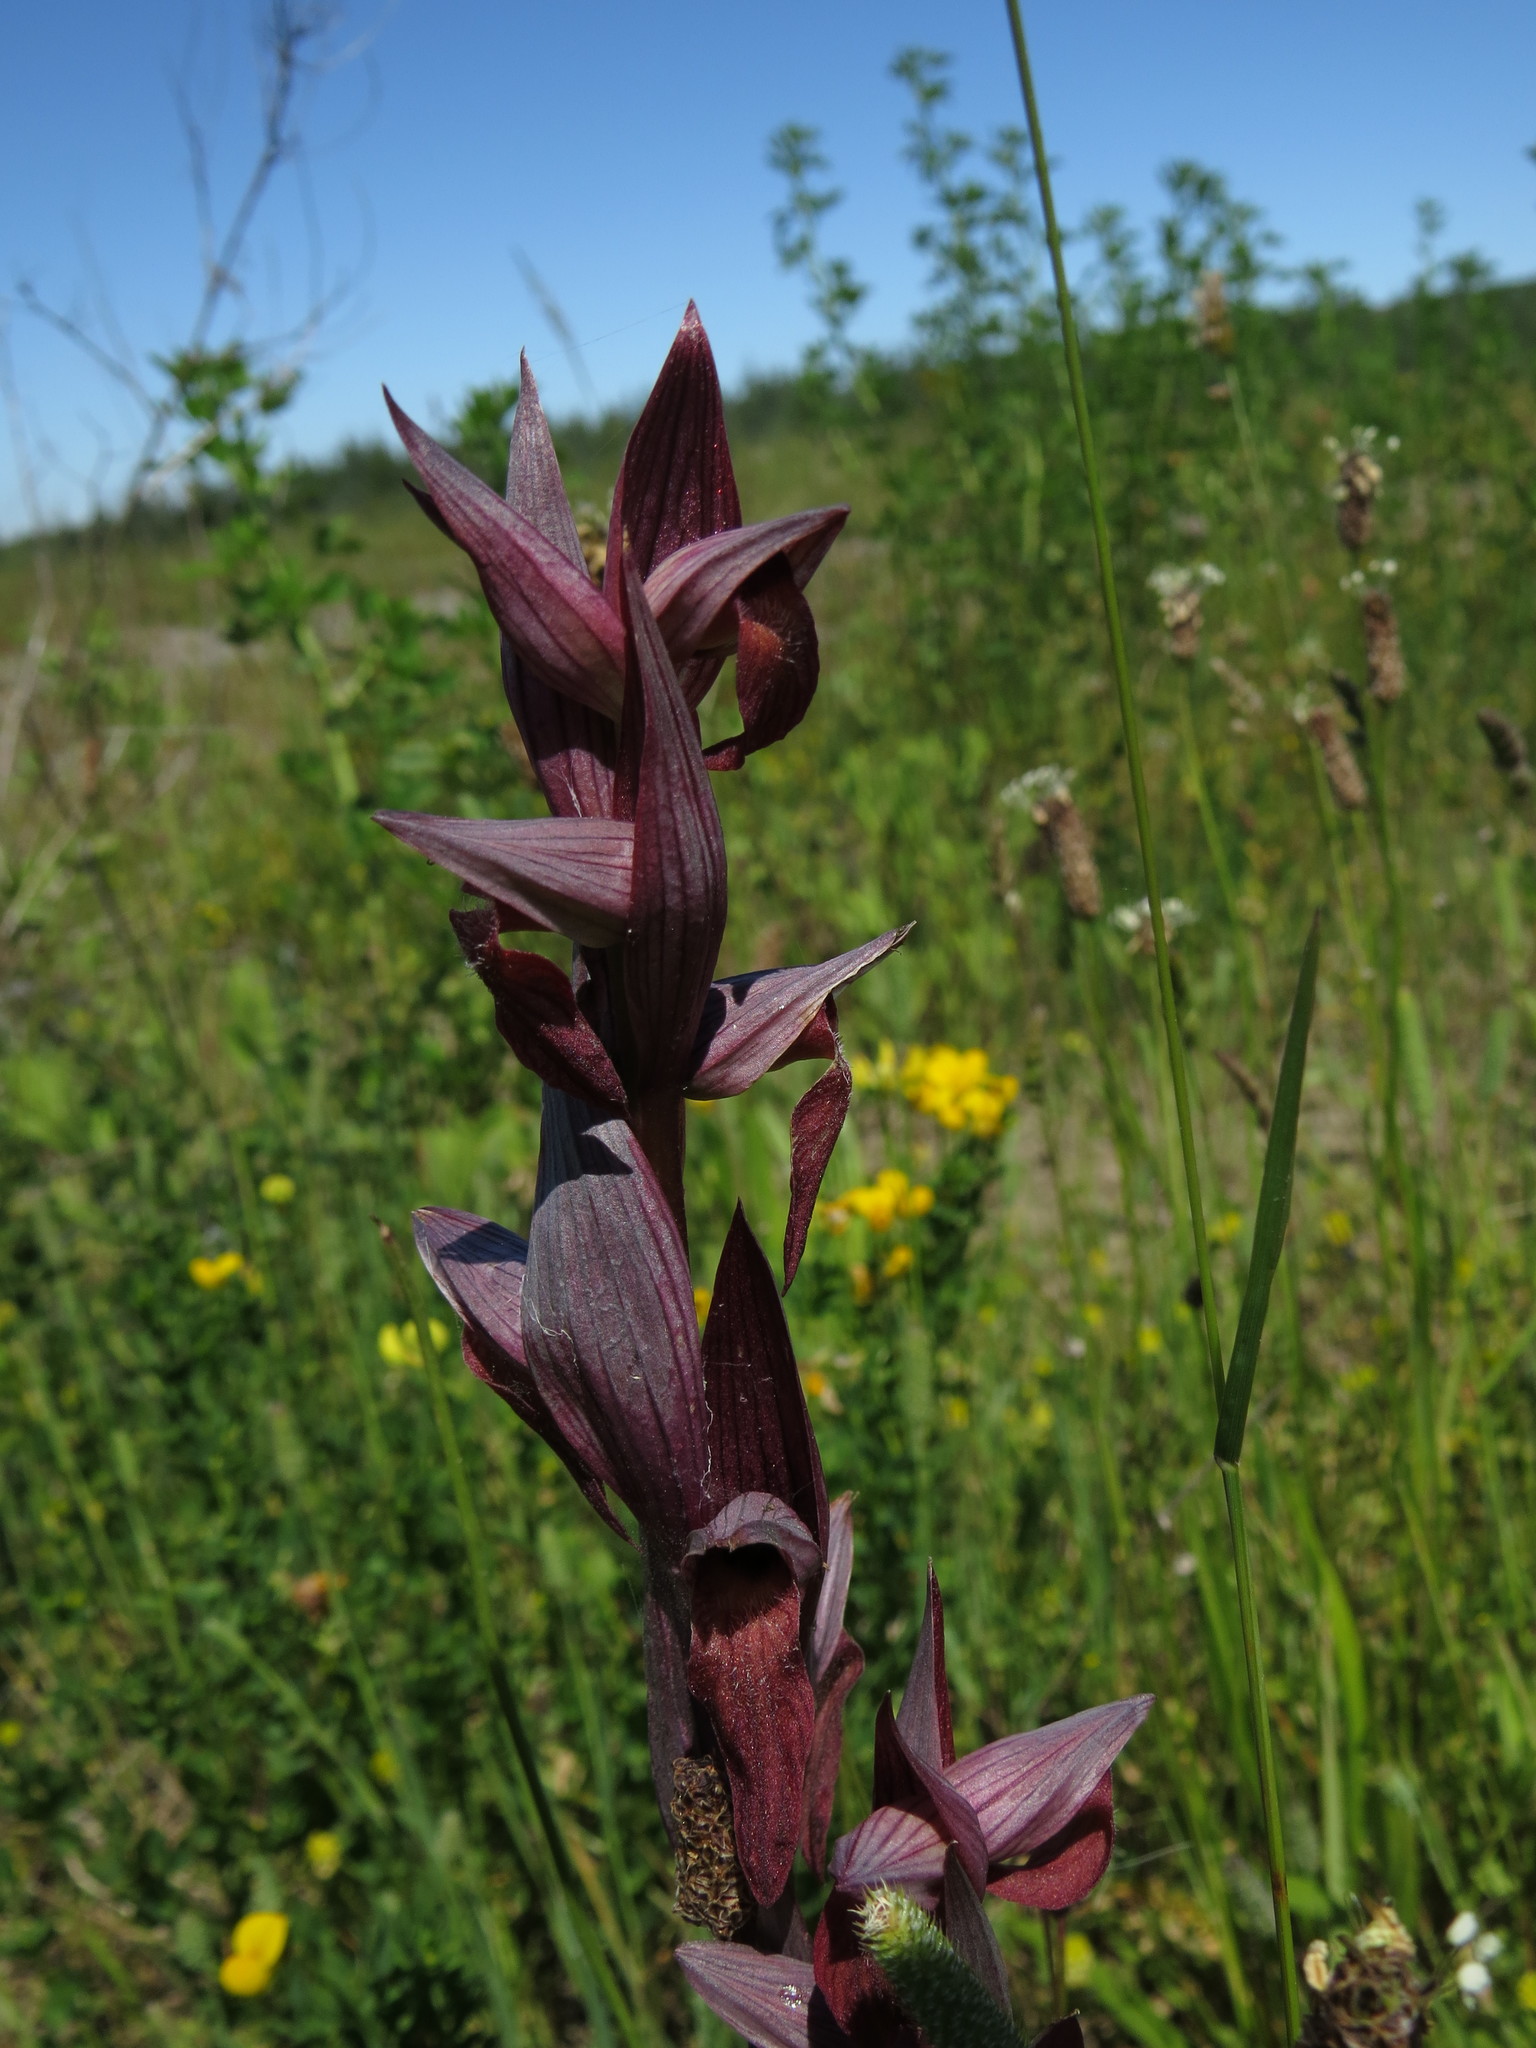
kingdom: Plantae
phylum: Tracheophyta
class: Liliopsida
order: Asparagales
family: Orchidaceae
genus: Serapias
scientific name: Serapias vomeracea
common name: Long-lipped tongue-orchid
